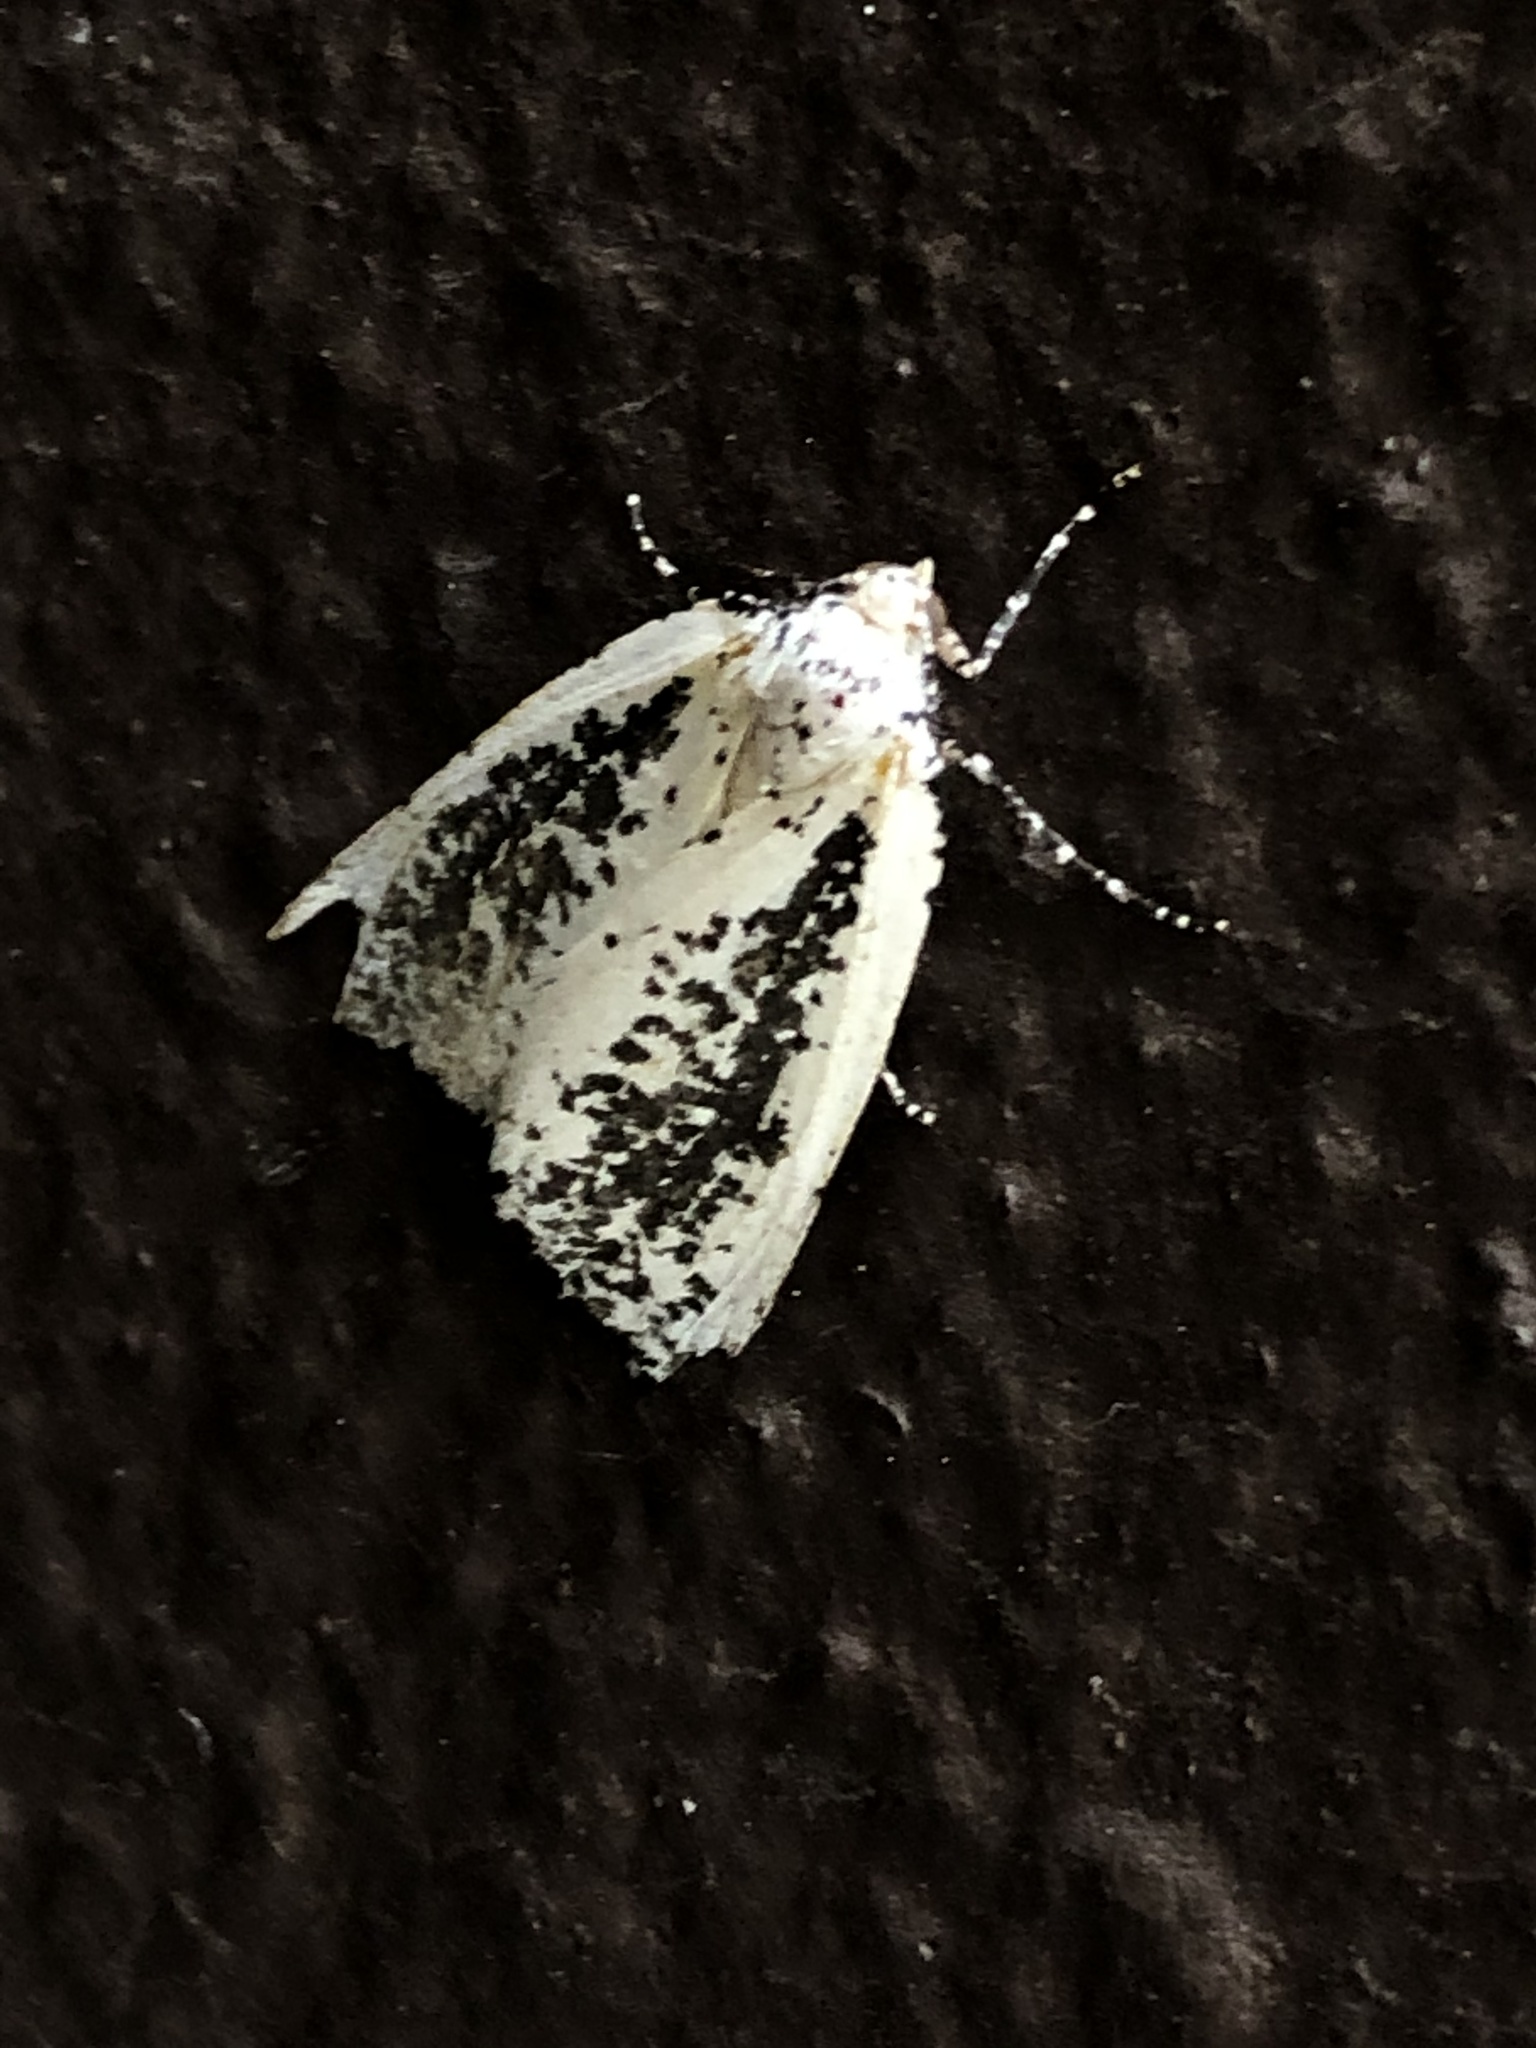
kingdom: Animalia
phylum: Arthropoda
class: Insecta
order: Lepidoptera
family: Geometridae
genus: Eucaterva
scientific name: Eucaterva variaria
